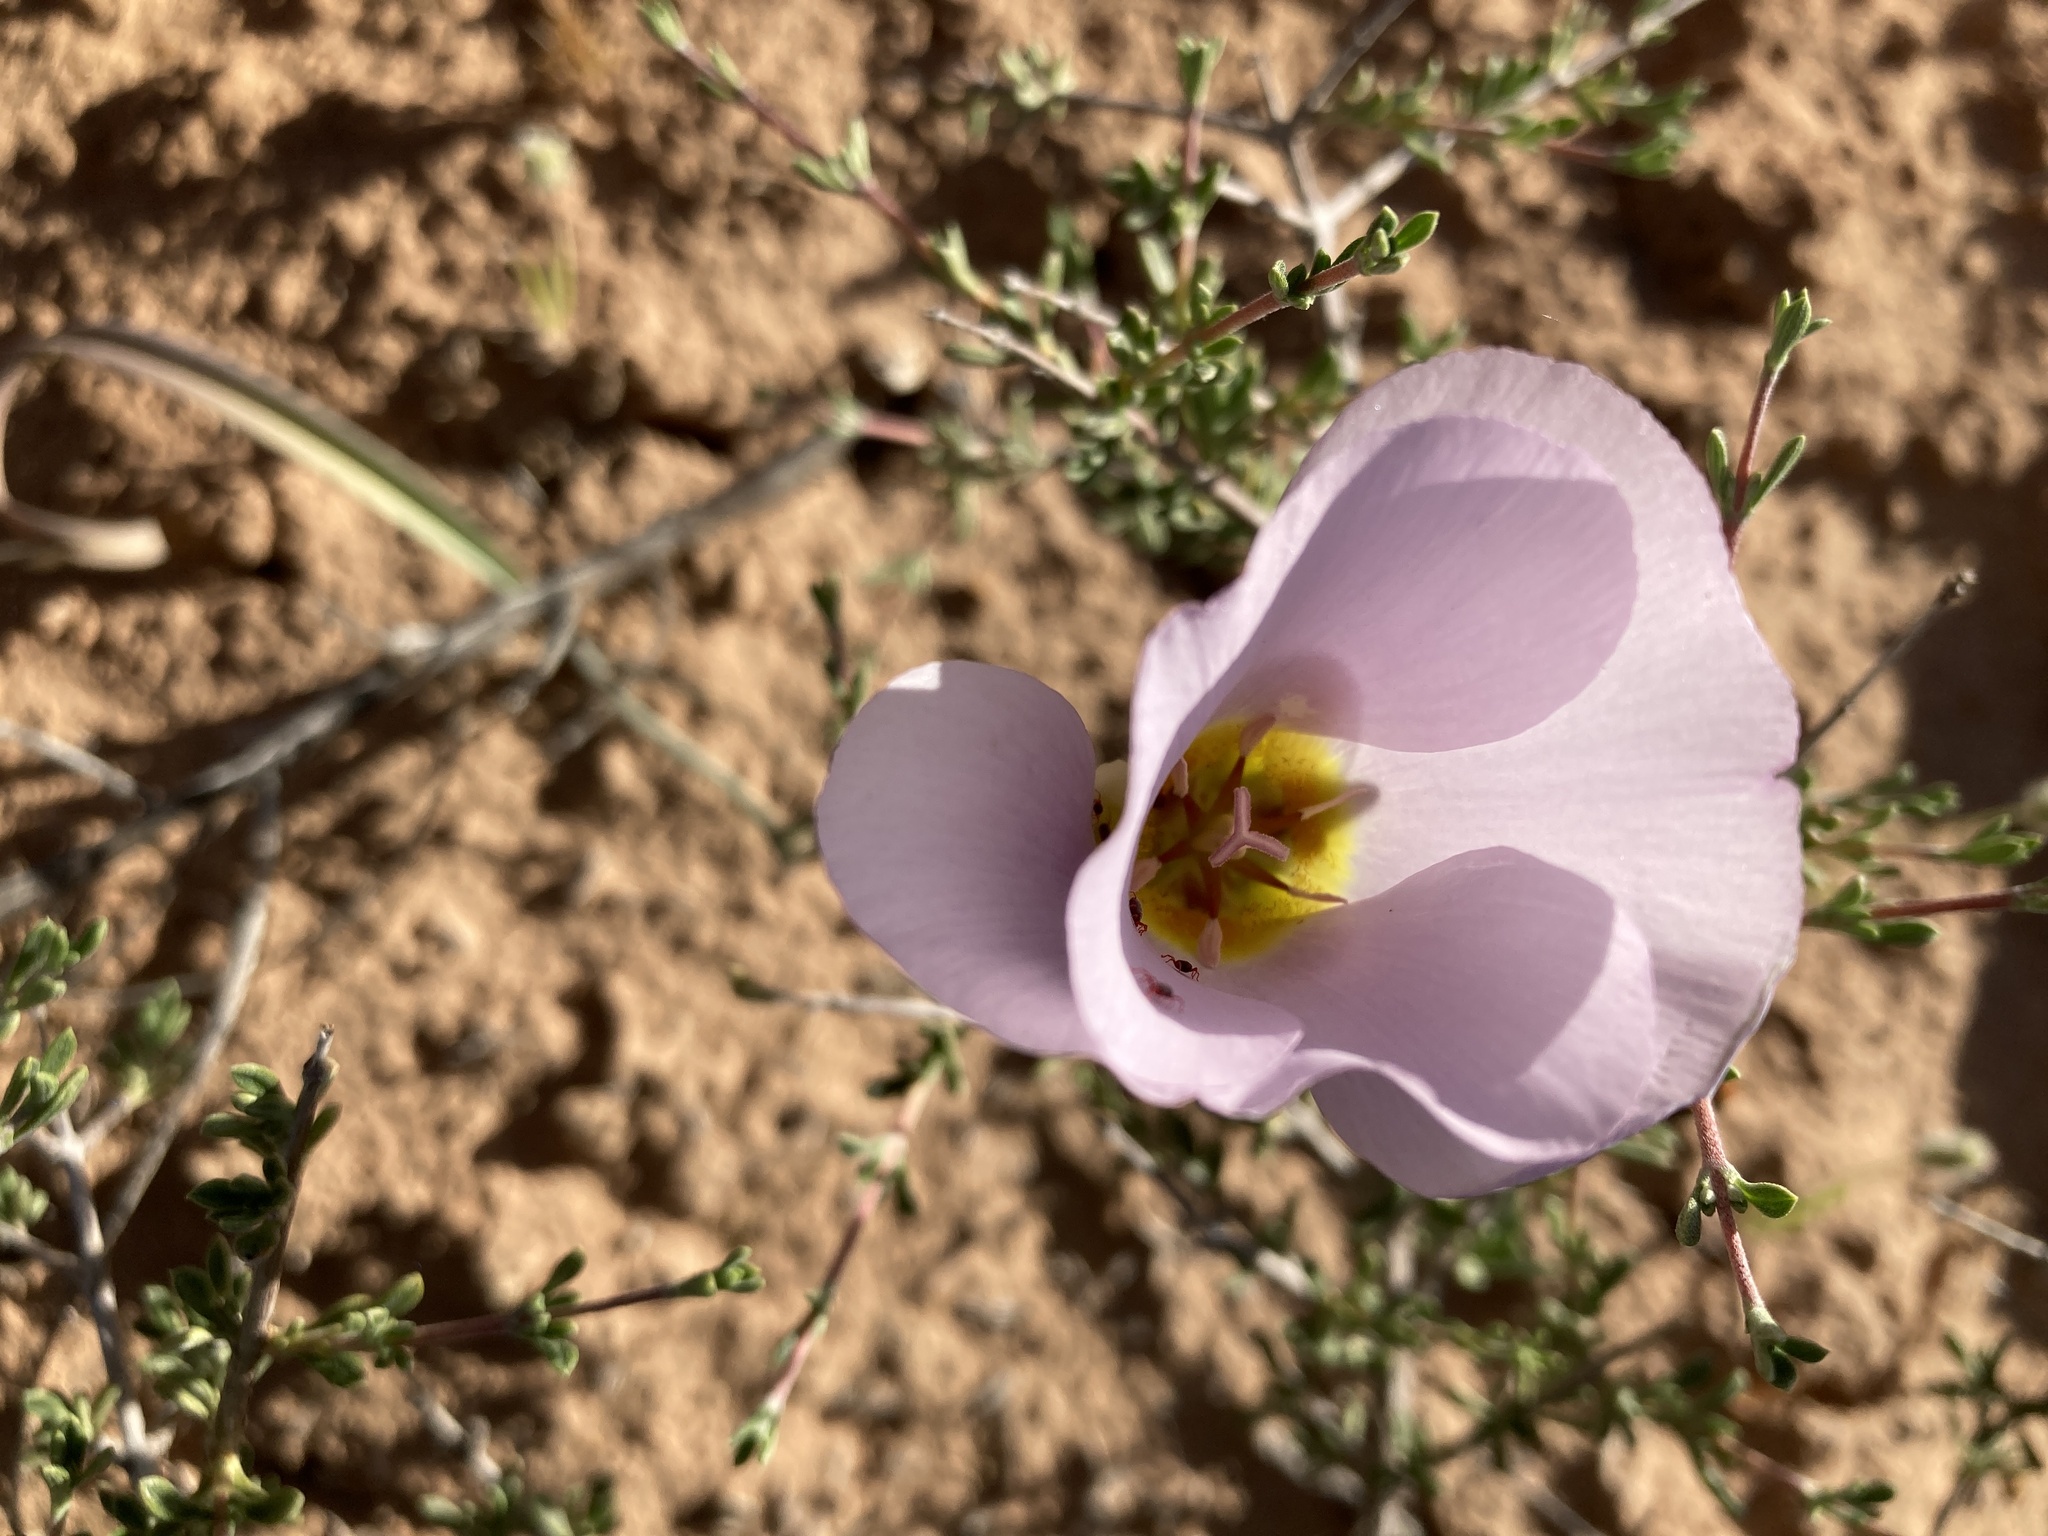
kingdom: Plantae
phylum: Tracheophyta
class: Liliopsida
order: Liliales
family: Liliaceae
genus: Calochortus
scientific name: Calochortus flexuosus
